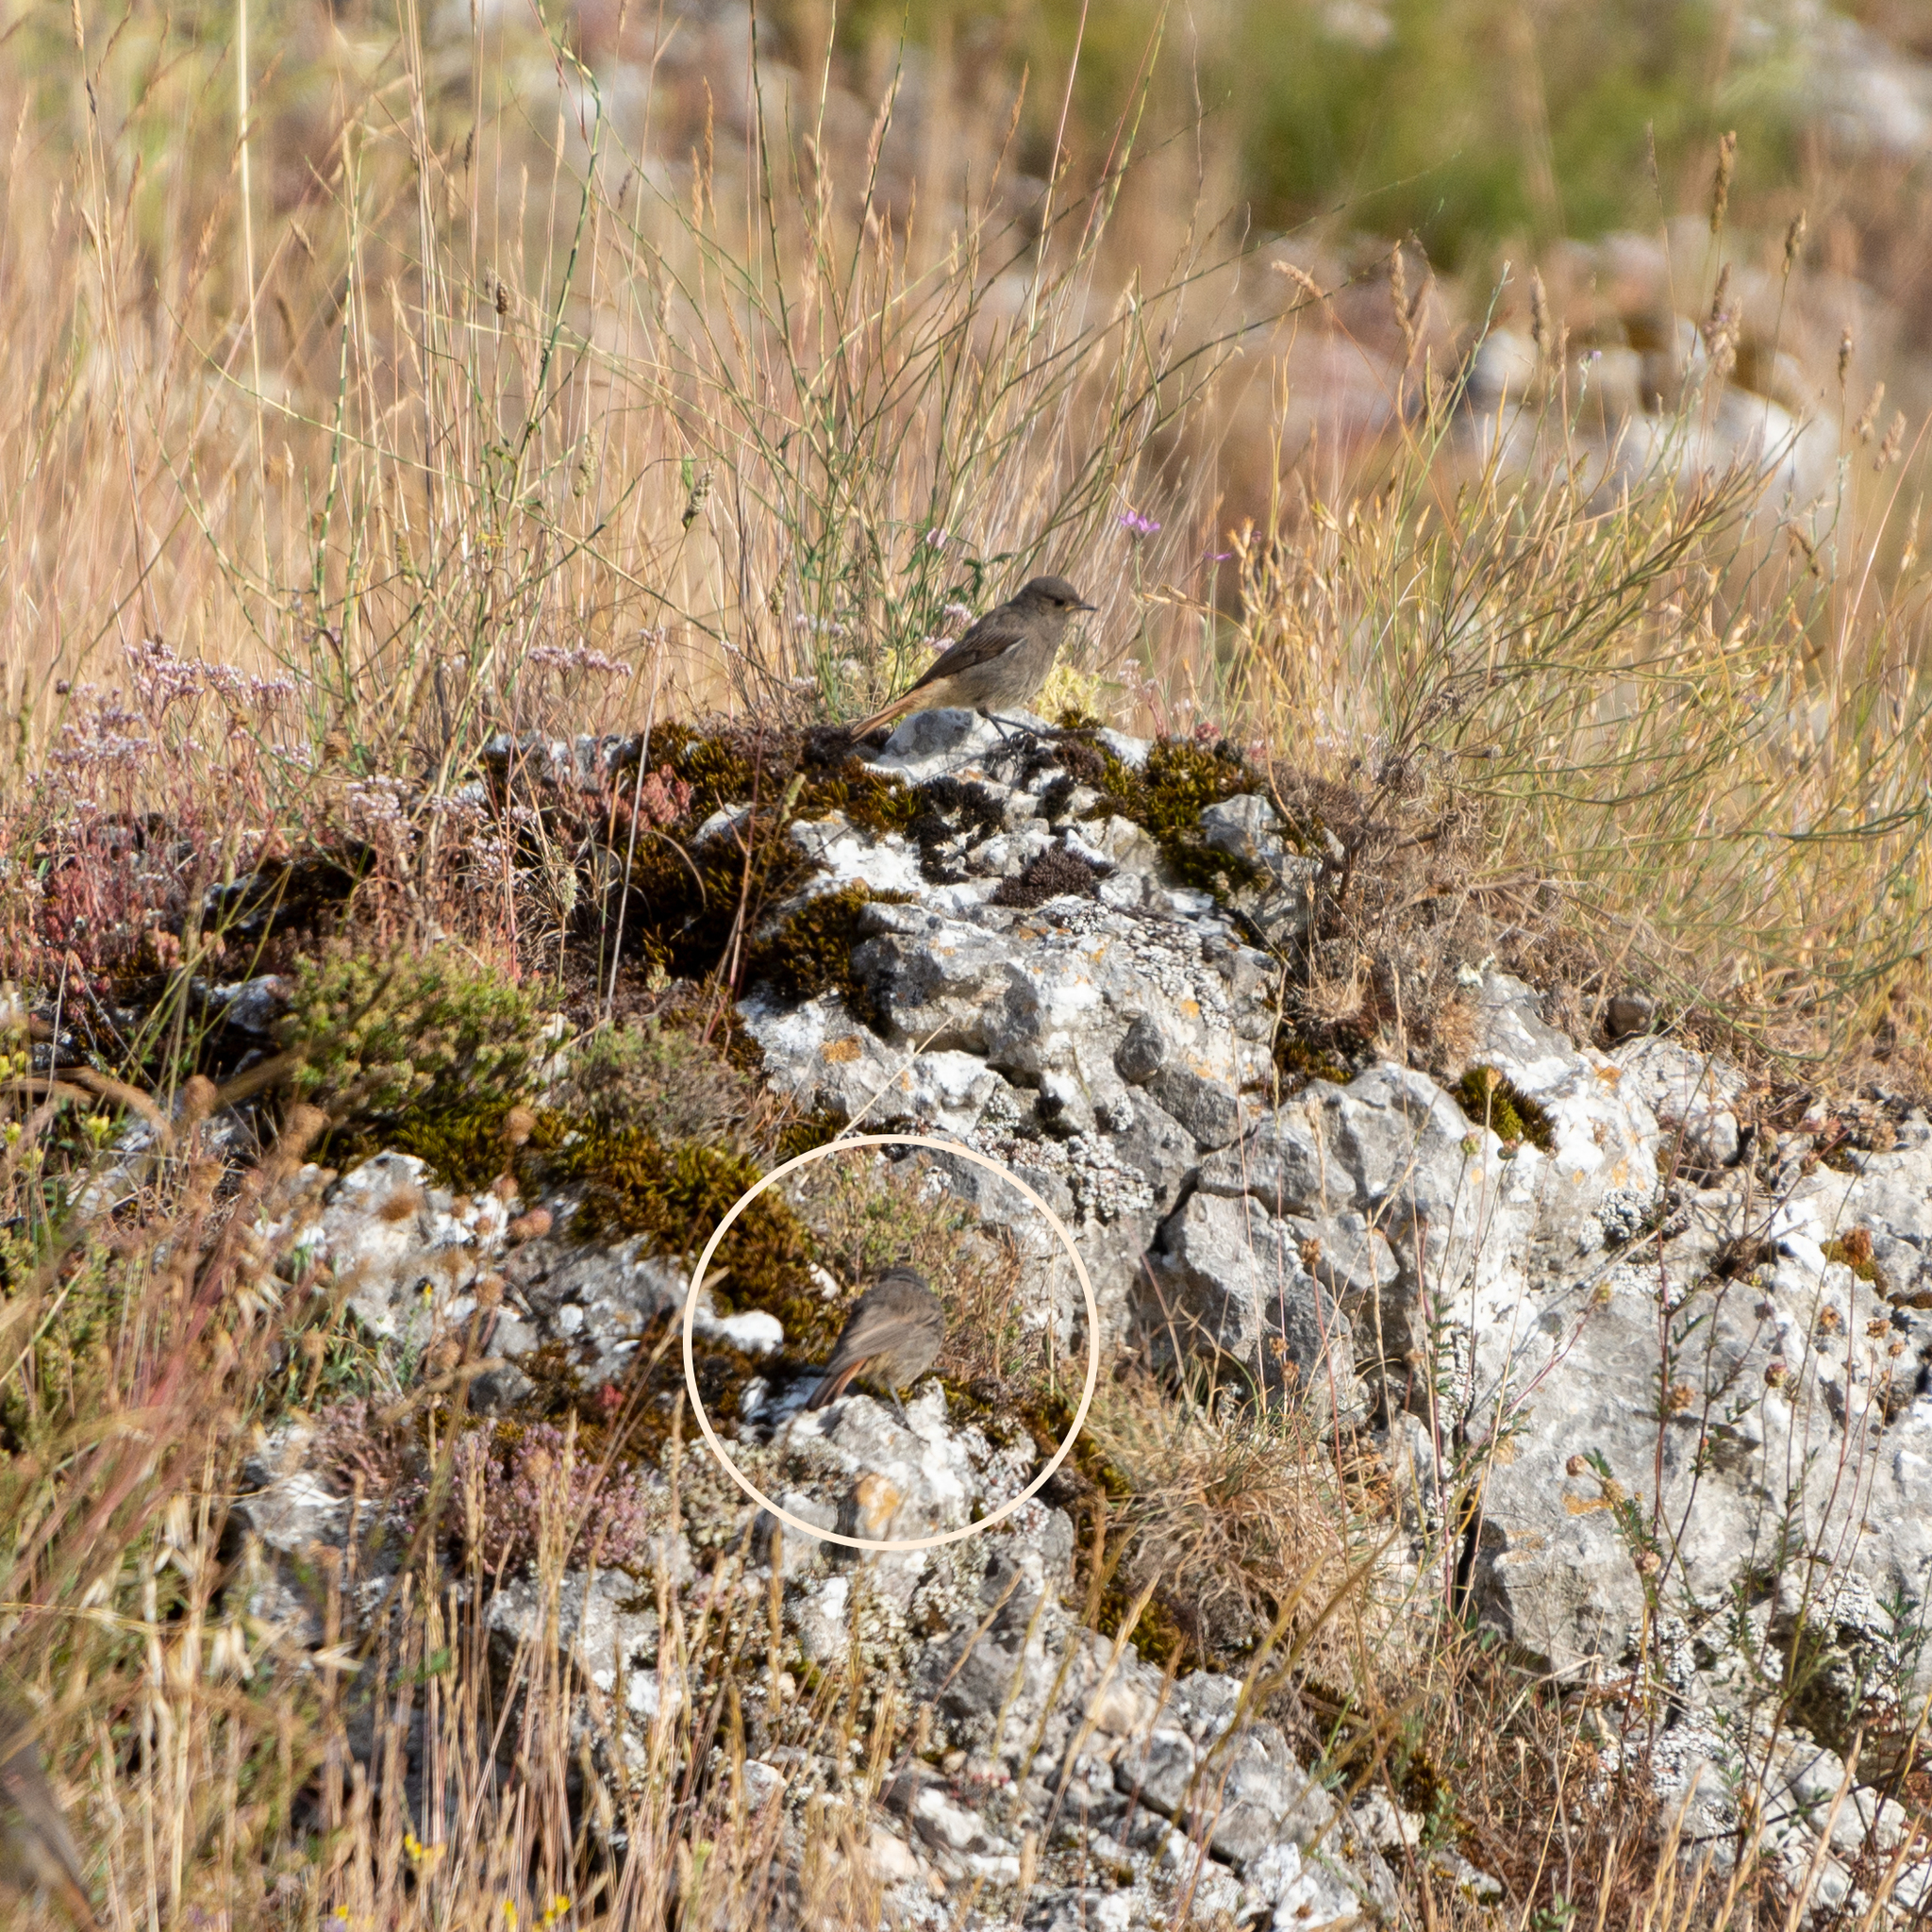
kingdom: Animalia
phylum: Chordata
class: Aves
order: Passeriformes
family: Muscicapidae
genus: Phoenicurus
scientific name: Phoenicurus ochruros
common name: Black redstart
